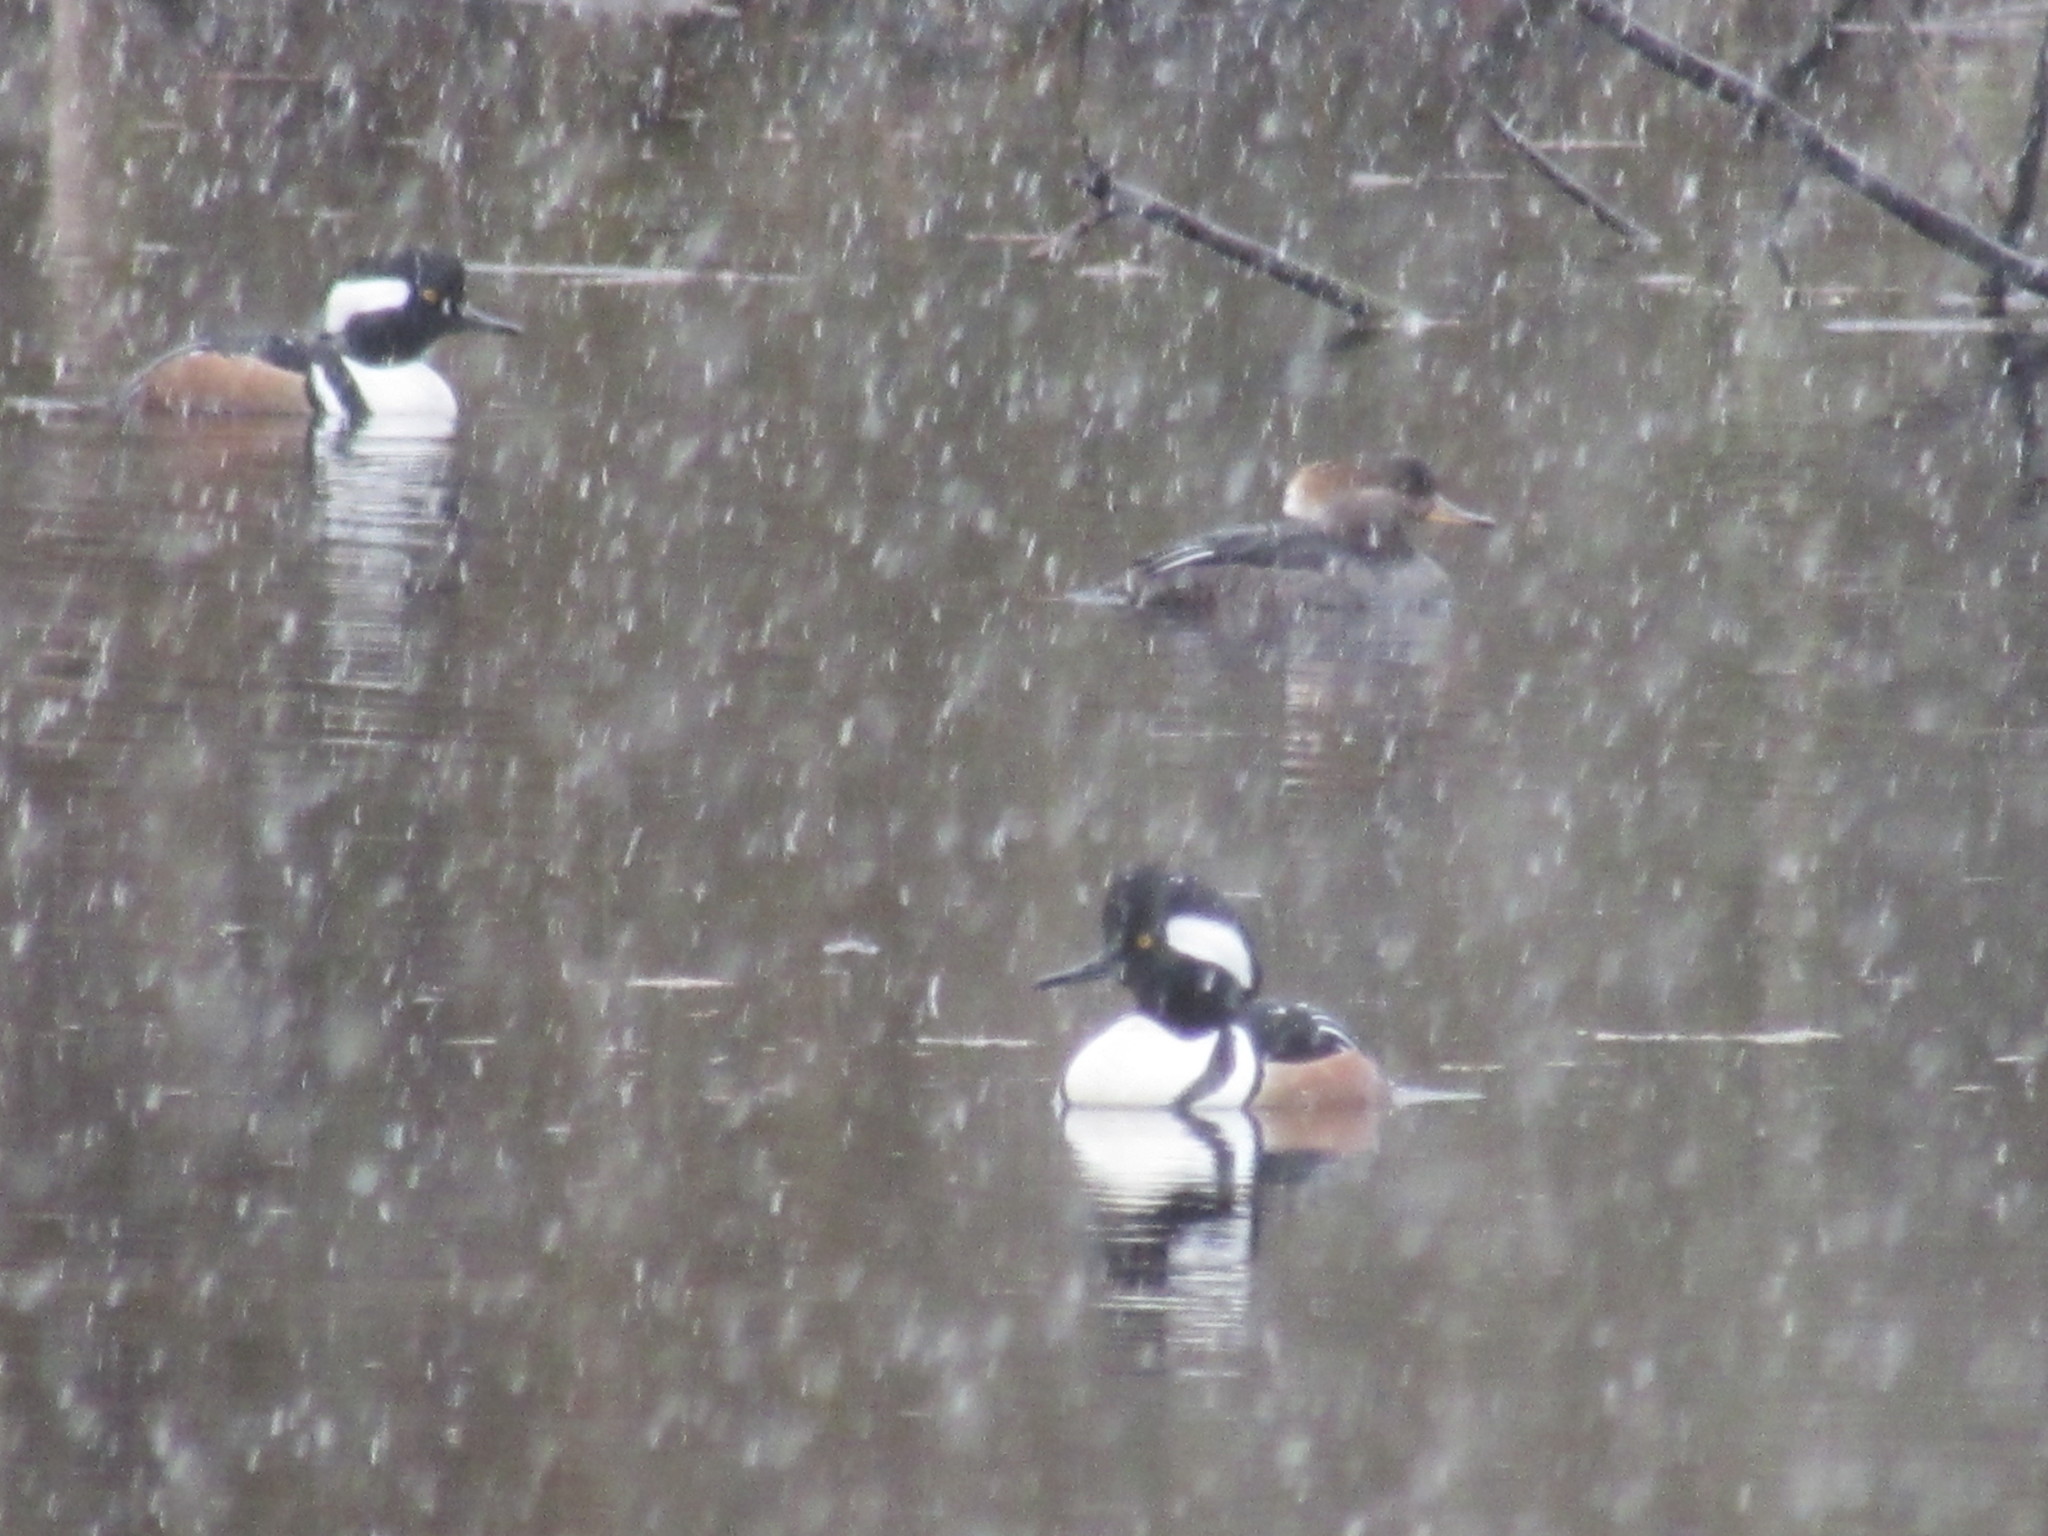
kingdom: Animalia
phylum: Chordata
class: Aves
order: Anseriformes
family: Anatidae
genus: Lophodytes
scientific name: Lophodytes cucullatus
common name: Hooded merganser
